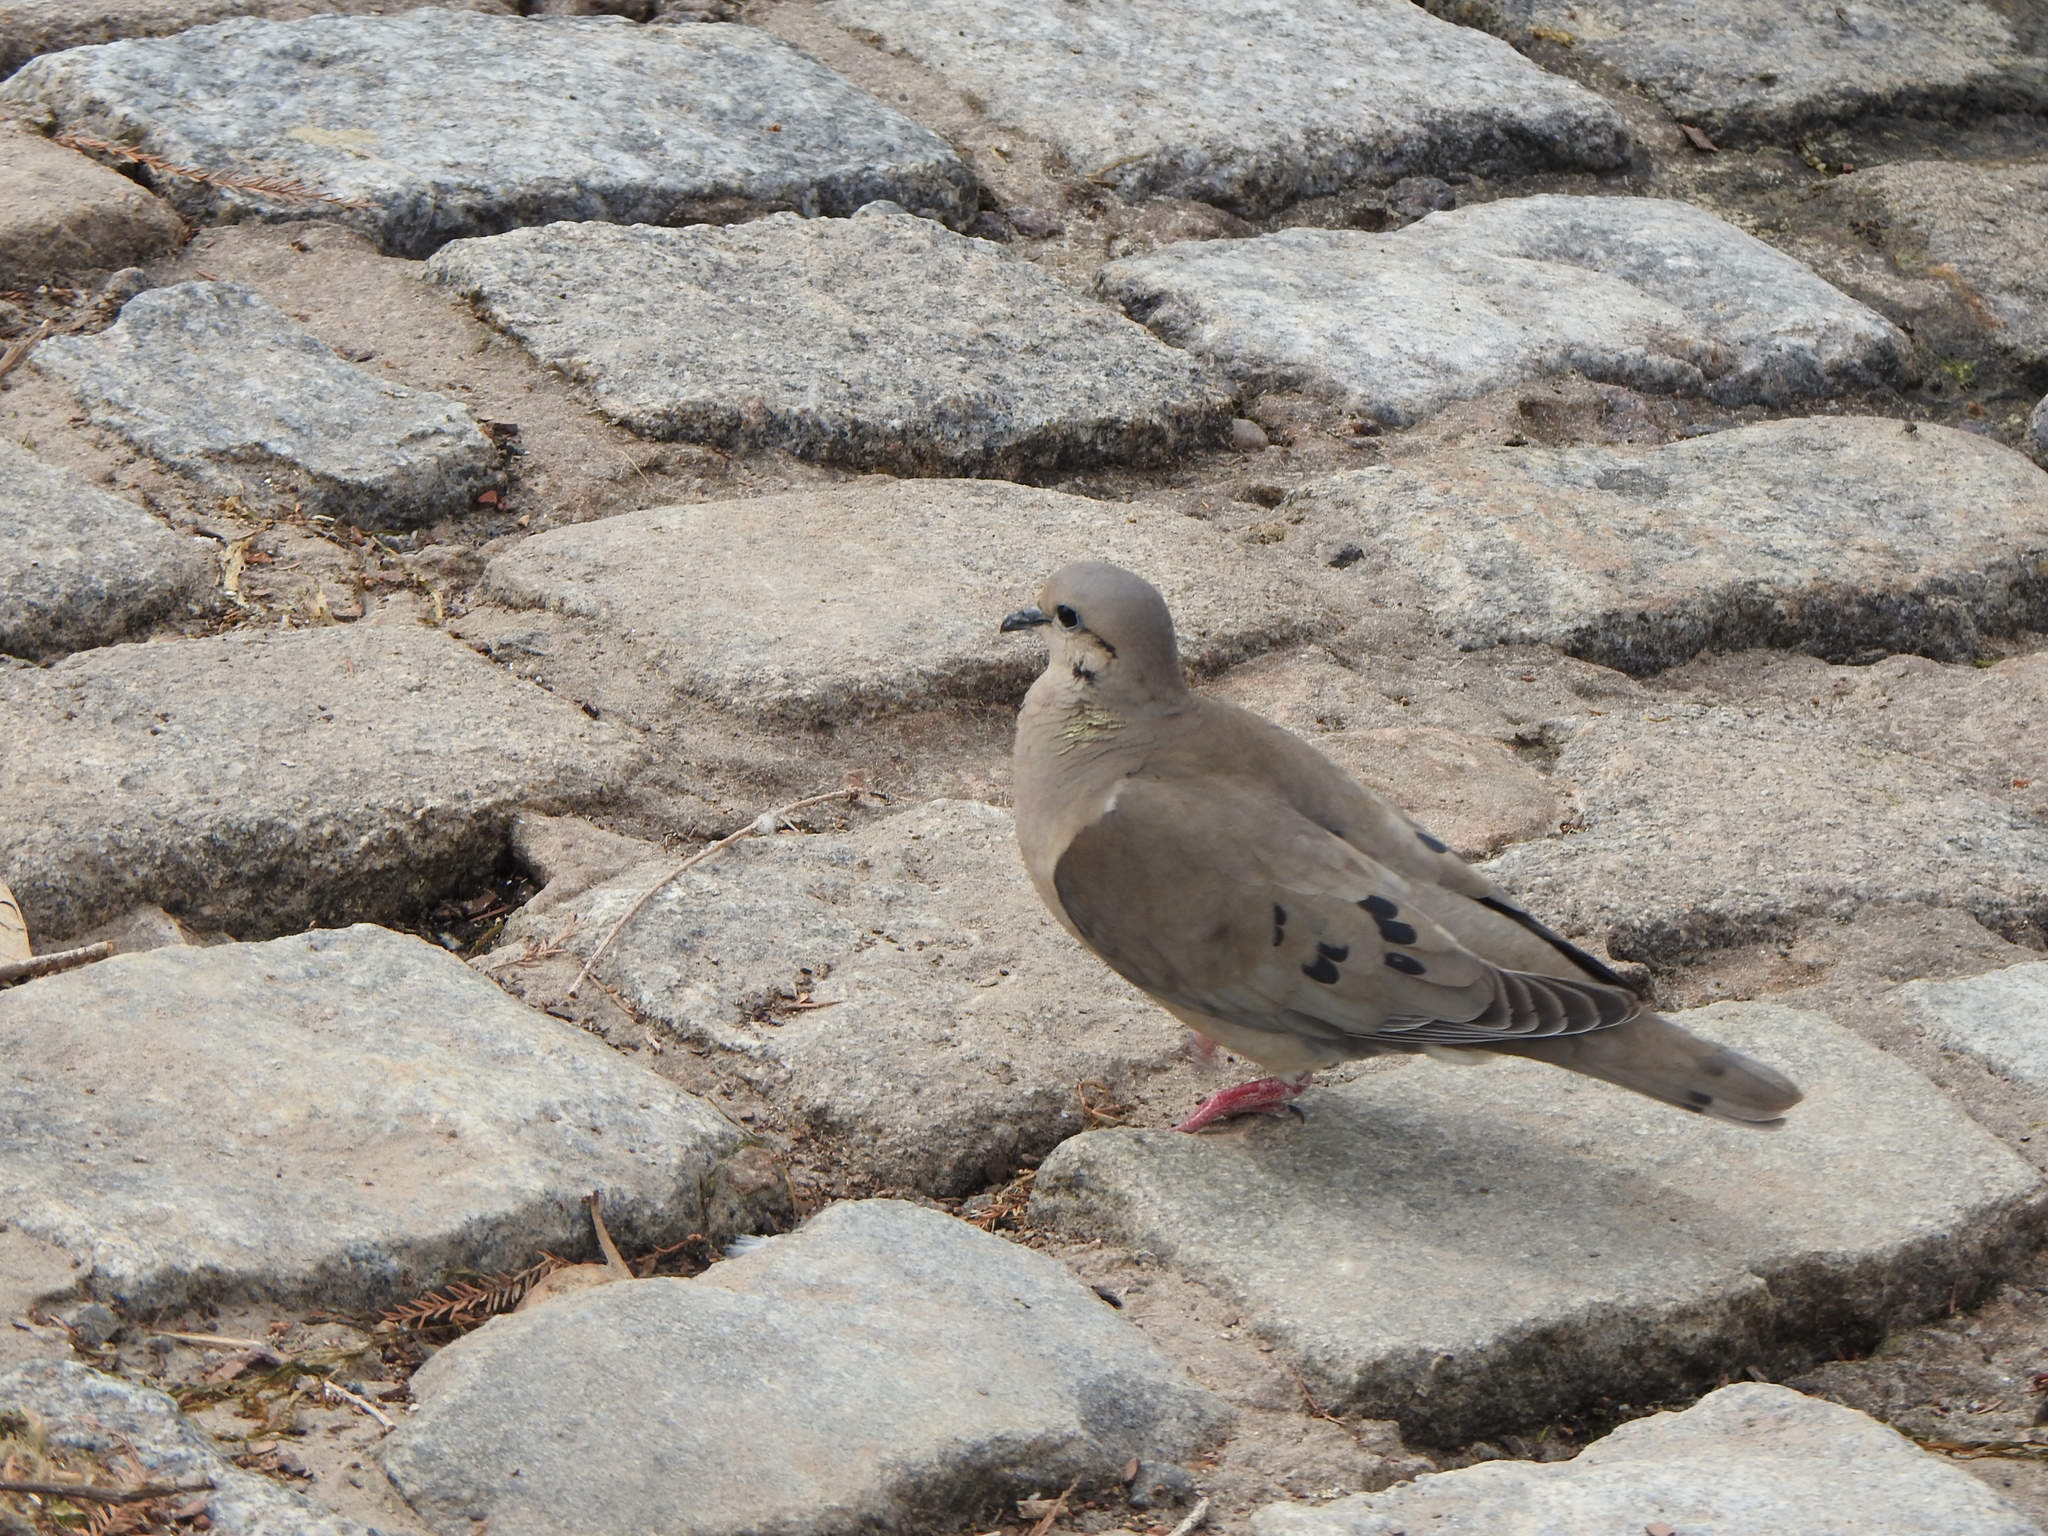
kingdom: Animalia
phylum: Chordata
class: Aves
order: Columbiformes
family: Columbidae
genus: Zenaida
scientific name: Zenaida auriculata
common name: Eared dove
